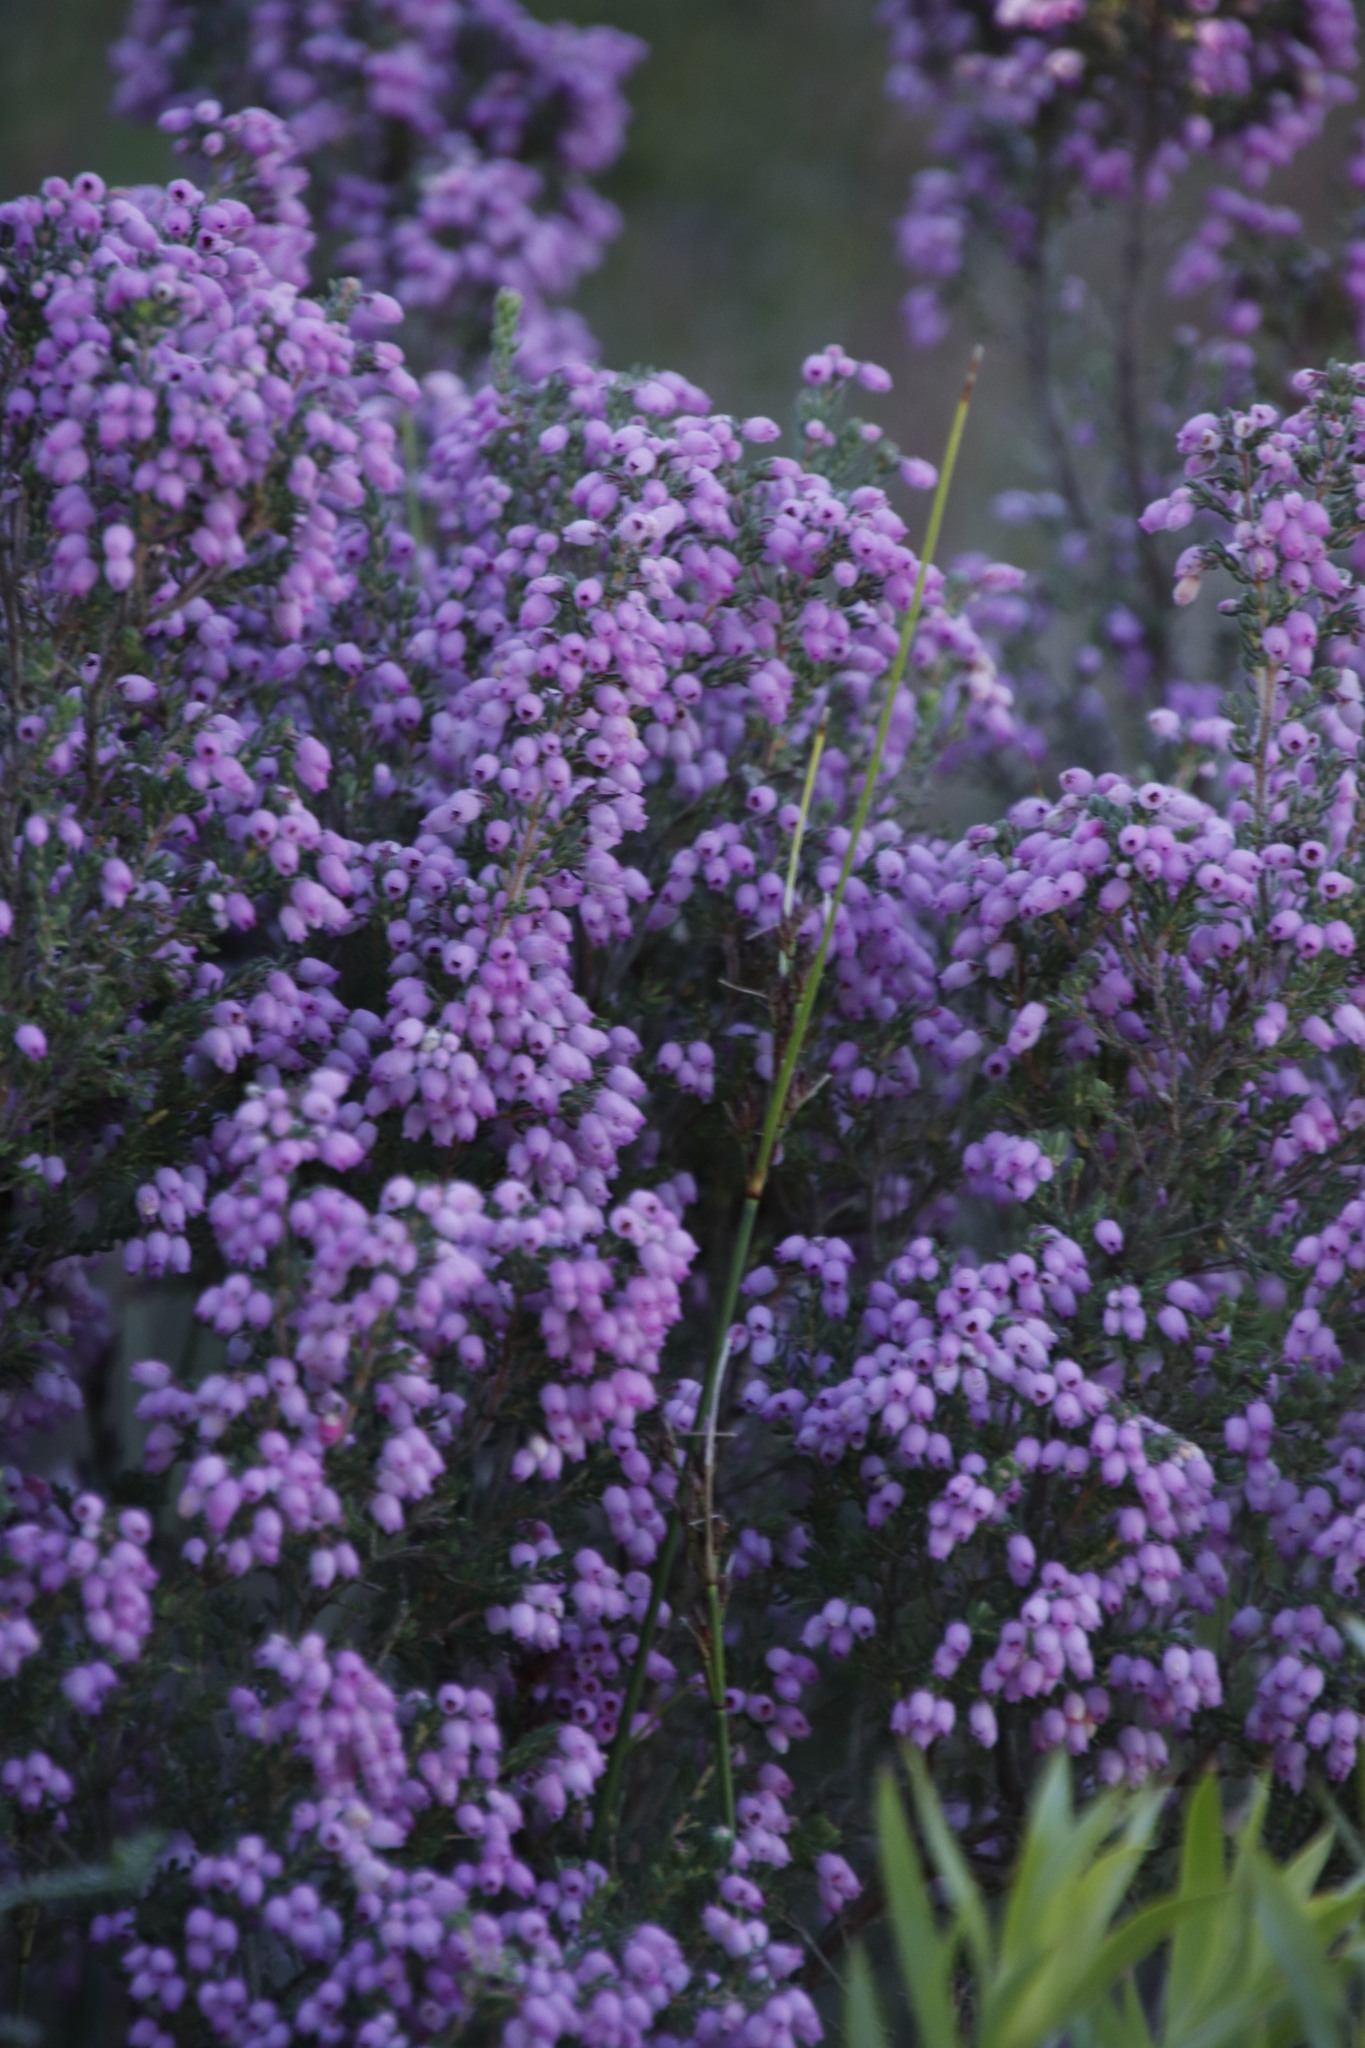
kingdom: Plantae
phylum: Tracheophyta
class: Magnoliopsida
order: Ericales
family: Ericaceae
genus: Erica
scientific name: Erica hirtiflora
